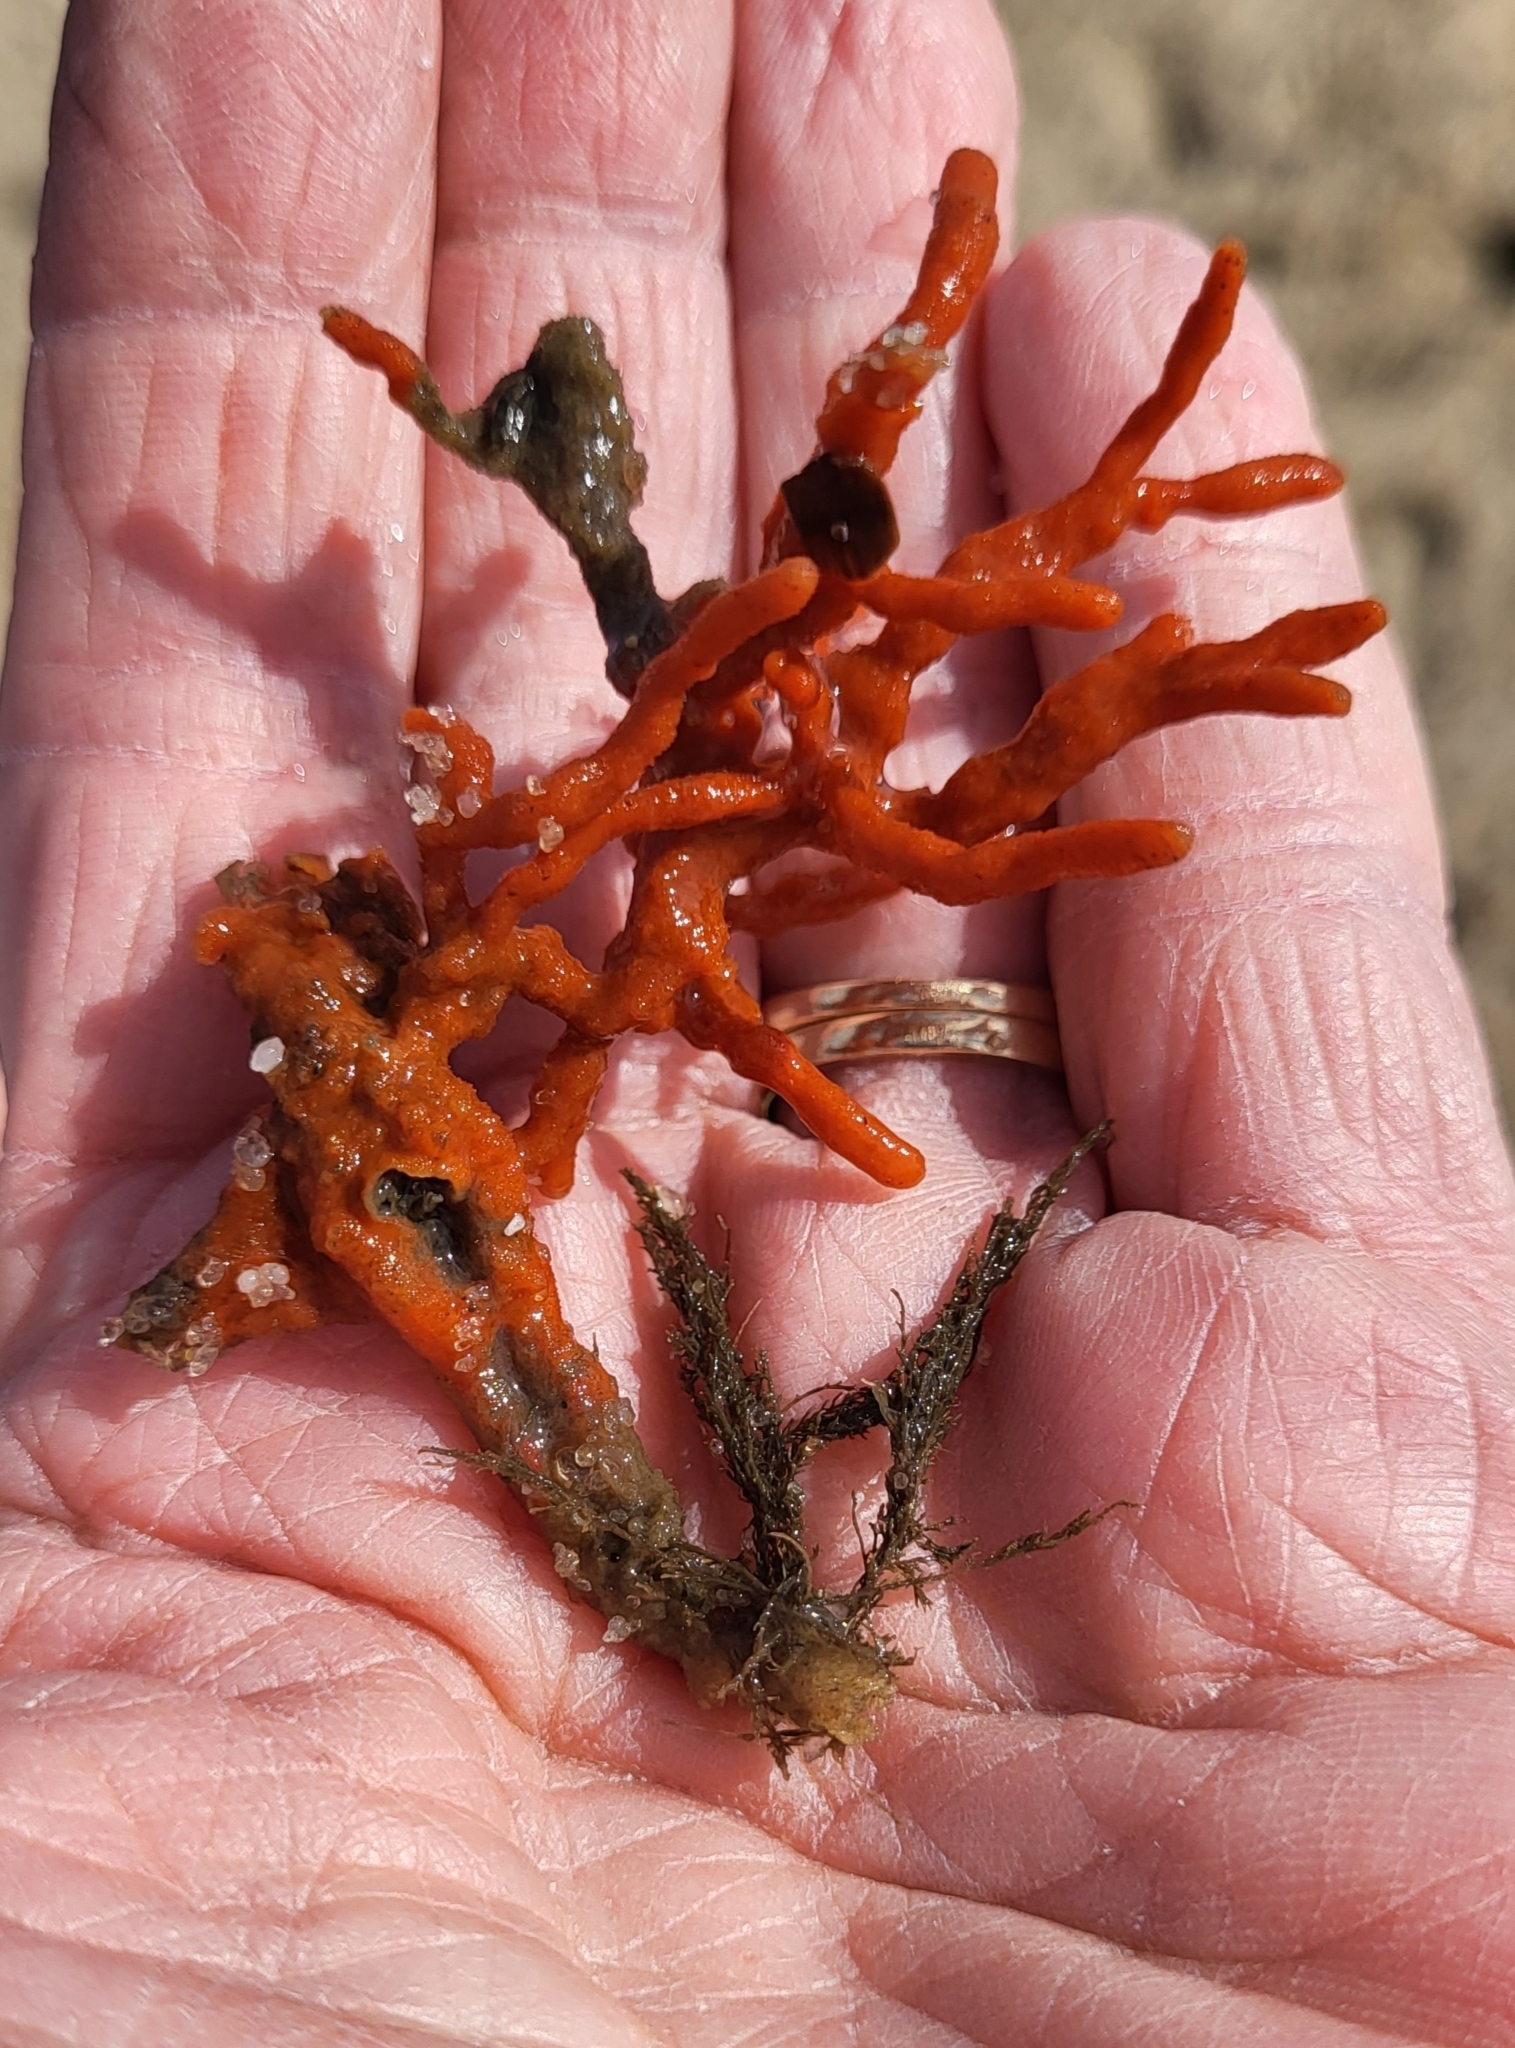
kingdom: Animalia
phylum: Porifera
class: Demospongiae
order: Poecilosclerida
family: Microcionidae
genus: Clathria
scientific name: Clathria prolifera
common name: Red beard sponge
